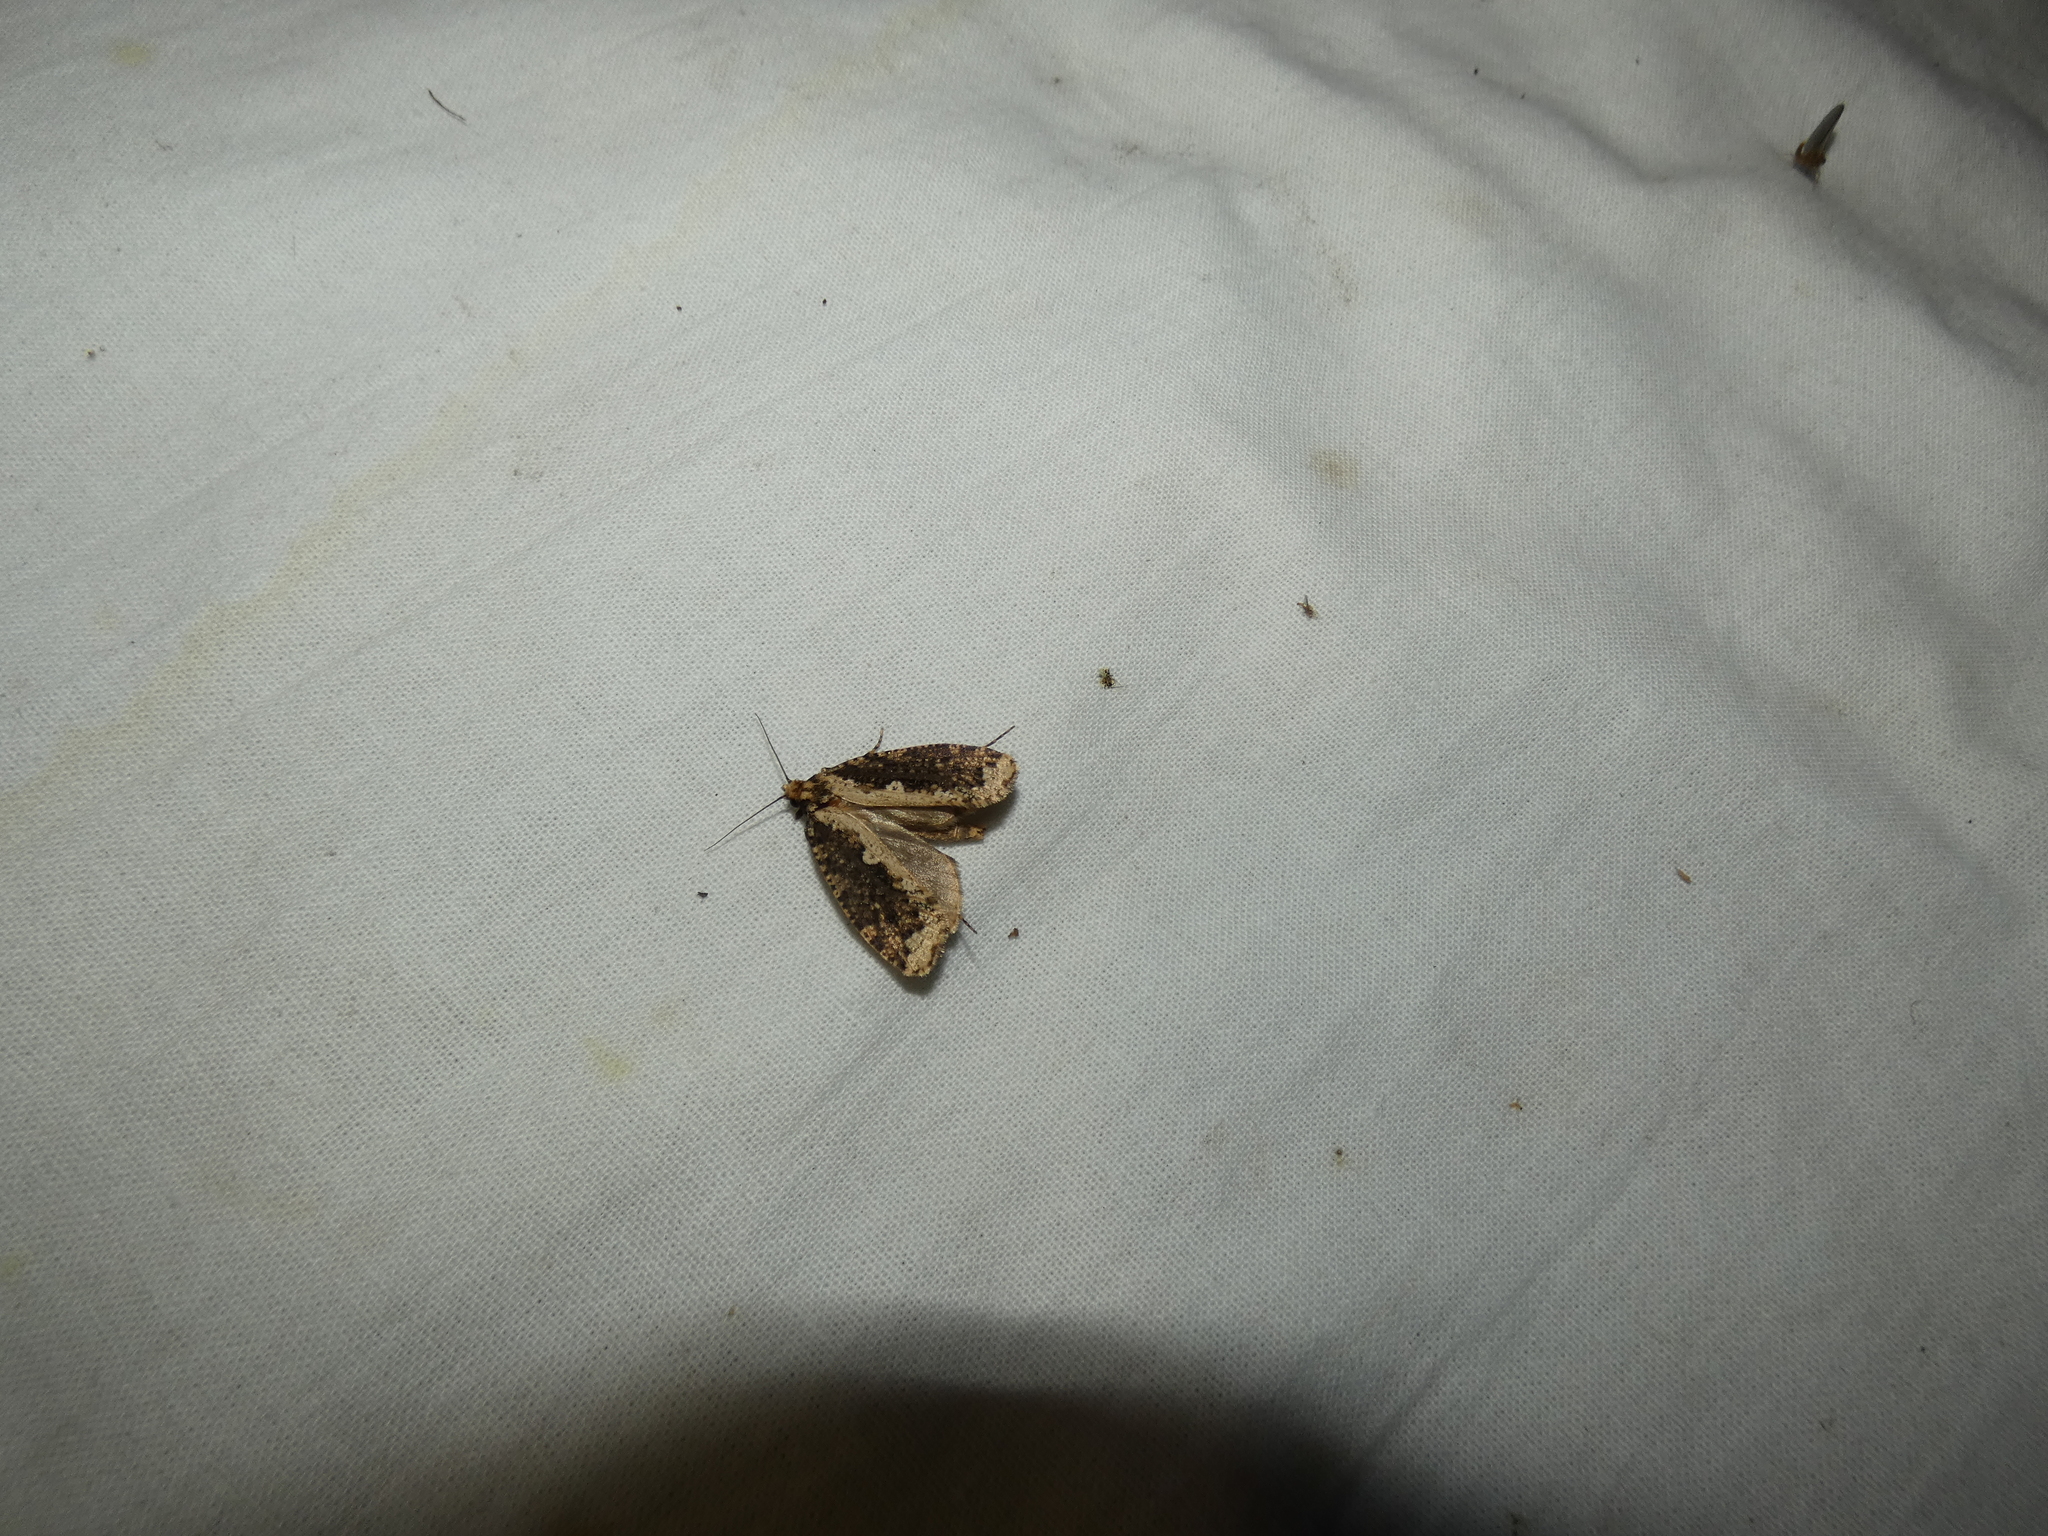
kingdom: Animalia
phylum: Arthropoda
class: Insecta
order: Lepidoptera
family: Tineidae
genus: Scardia
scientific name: Scardia boletella
